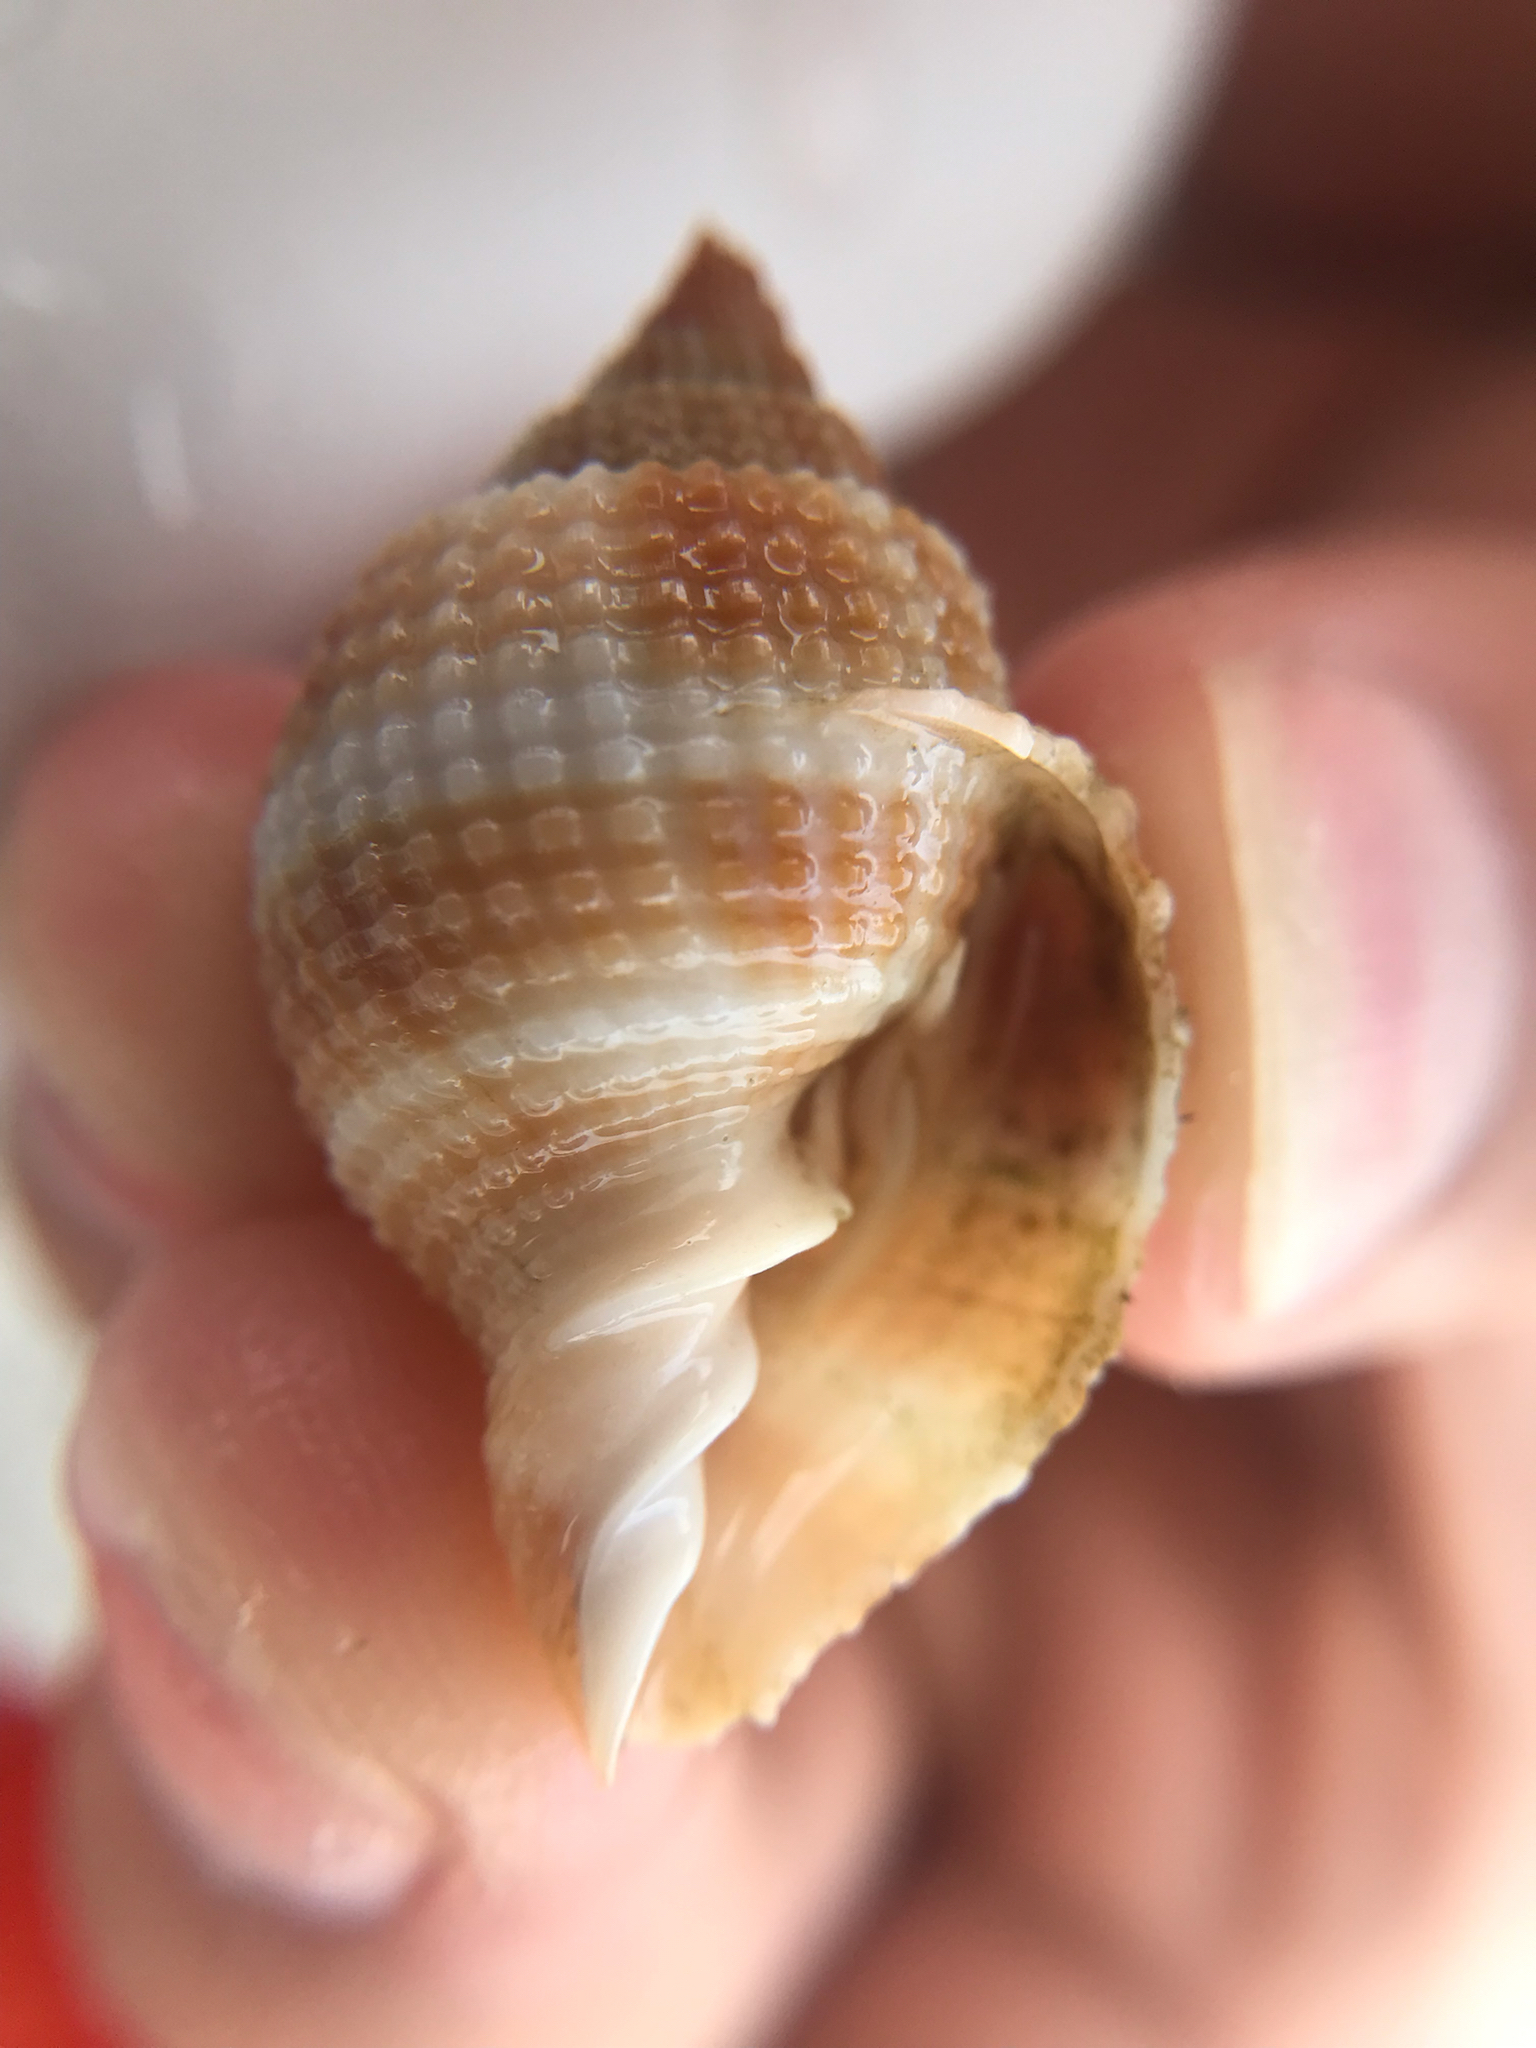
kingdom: Animalia
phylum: Mollusca
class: Gastropoda
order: Neogastropoda
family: Cancellariidae
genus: Cancellaria
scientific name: Cancellaria reticulata
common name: Common nutmeg
